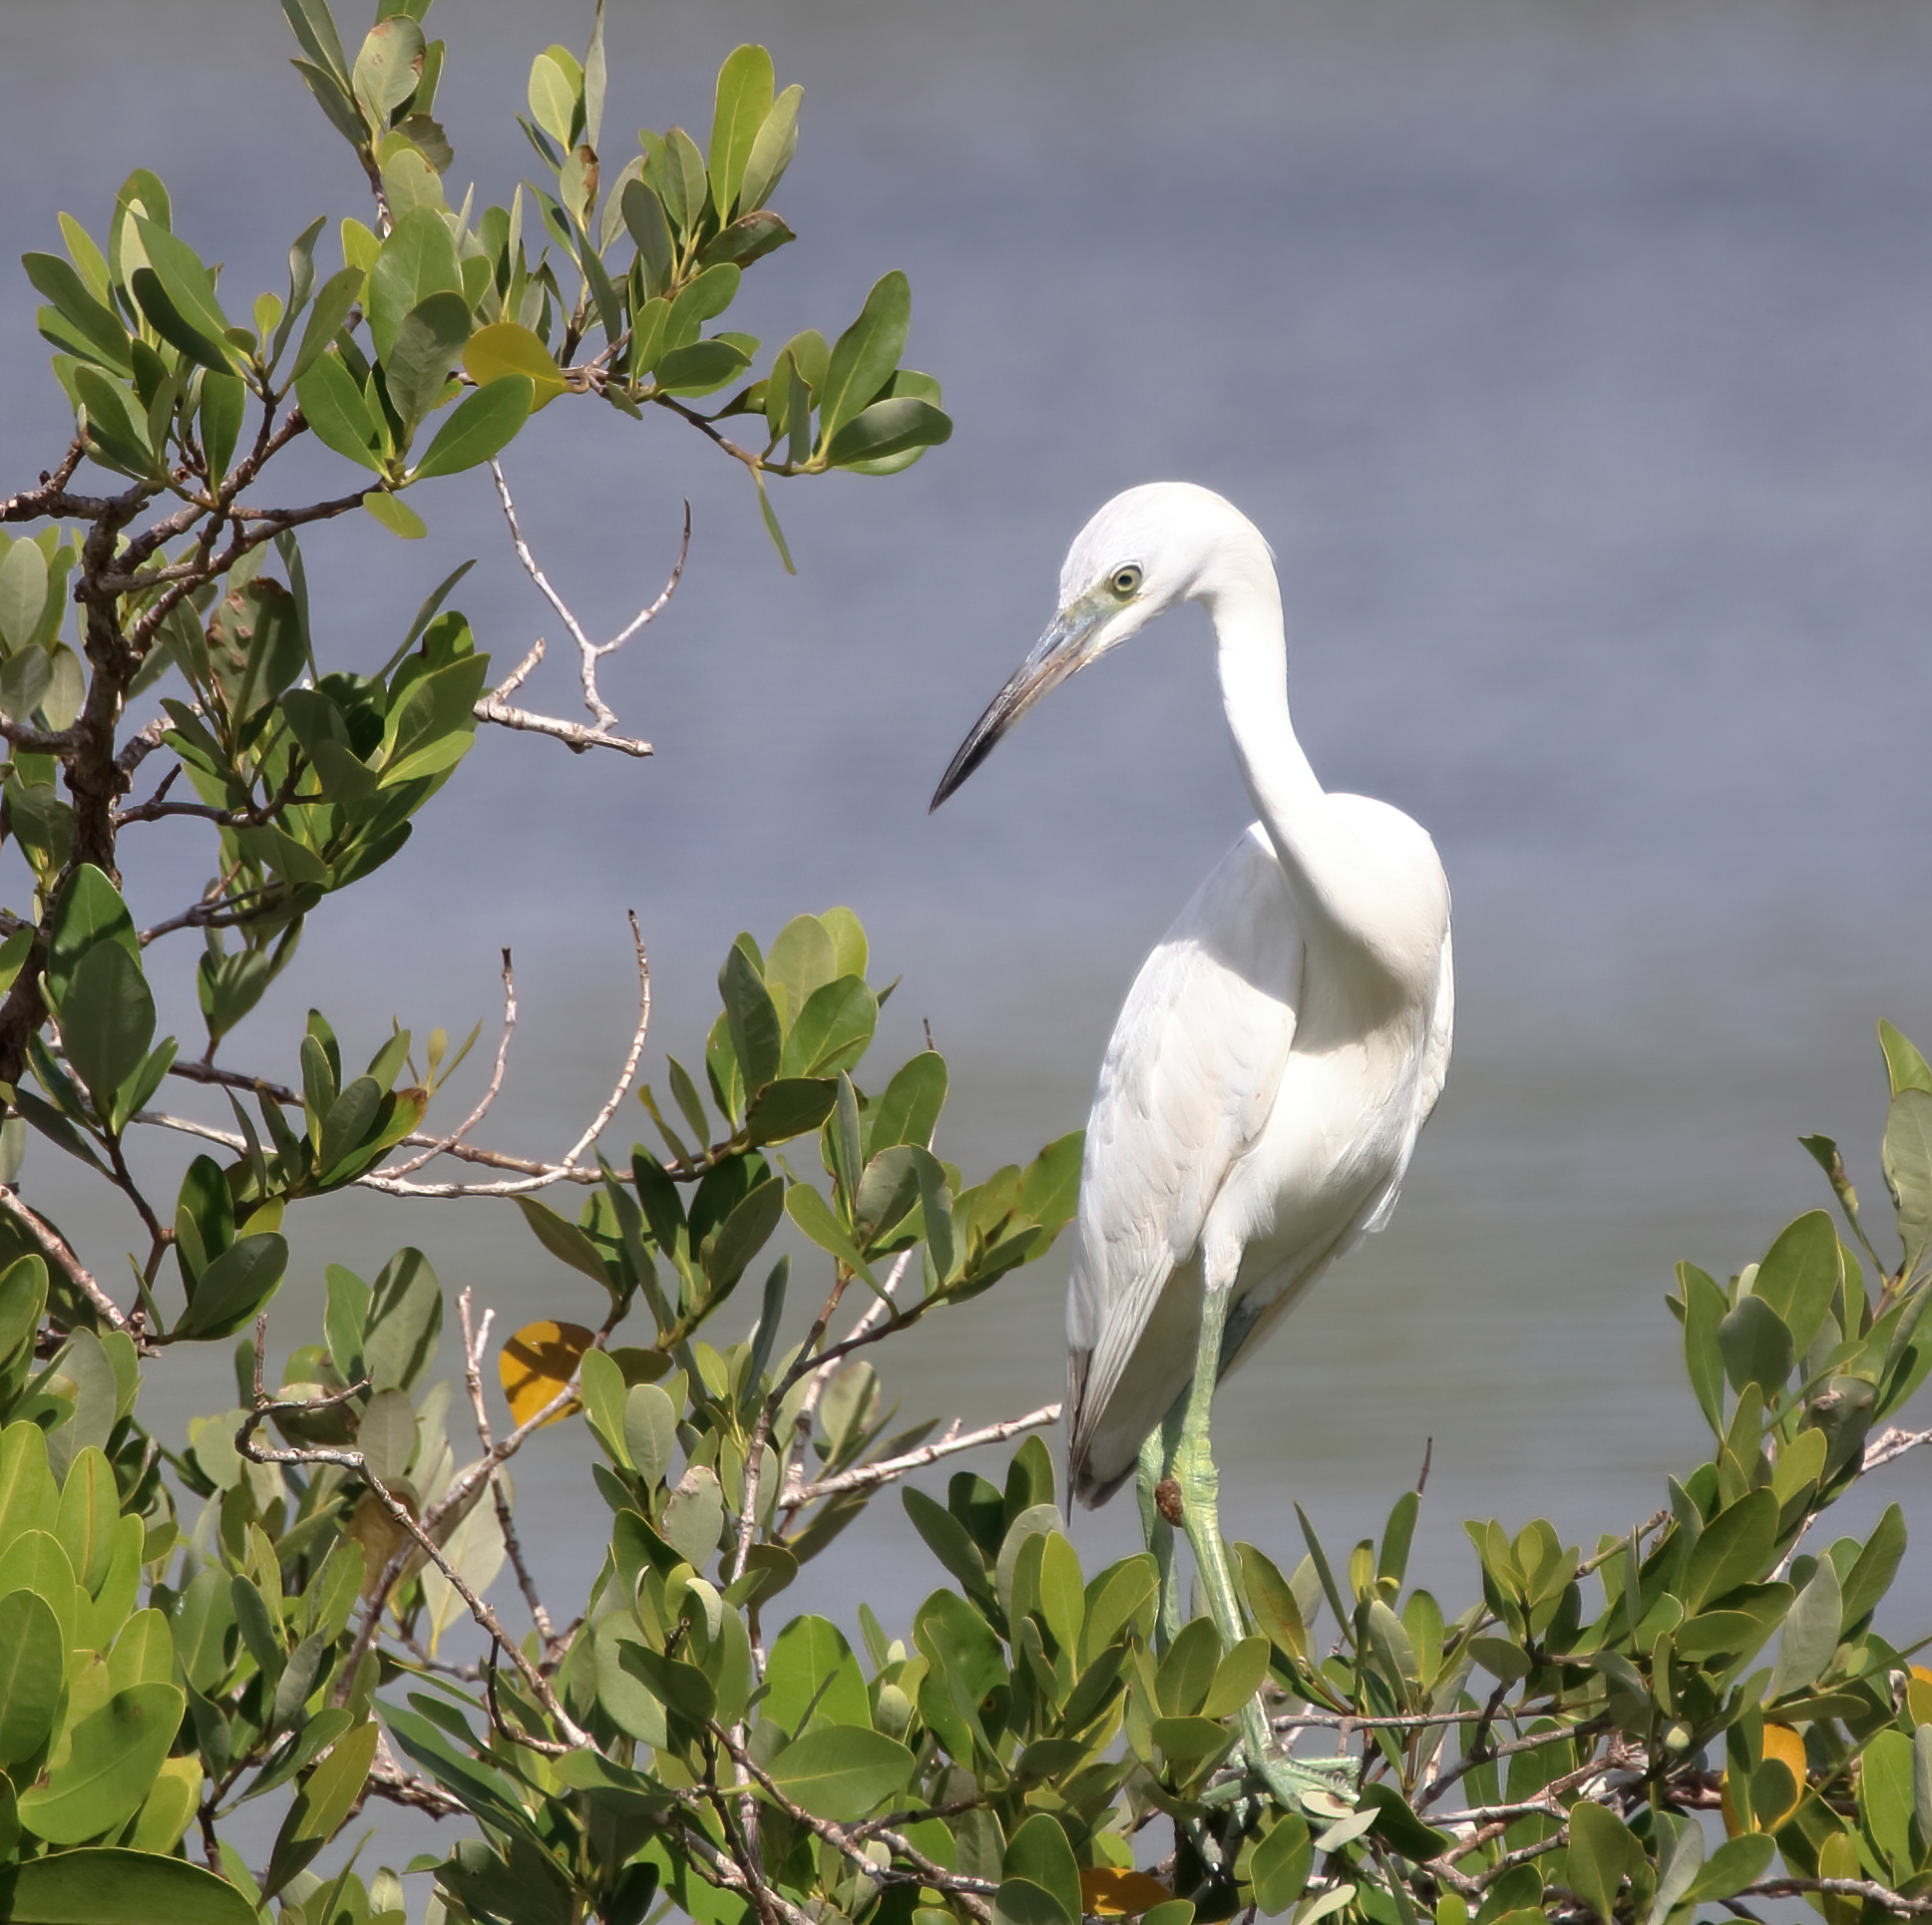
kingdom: Animalia
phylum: Chordata
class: Aves
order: Pelecaniformes
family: Ardeidae
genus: Egretta
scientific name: Egretta caerulea
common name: Little blue heron
